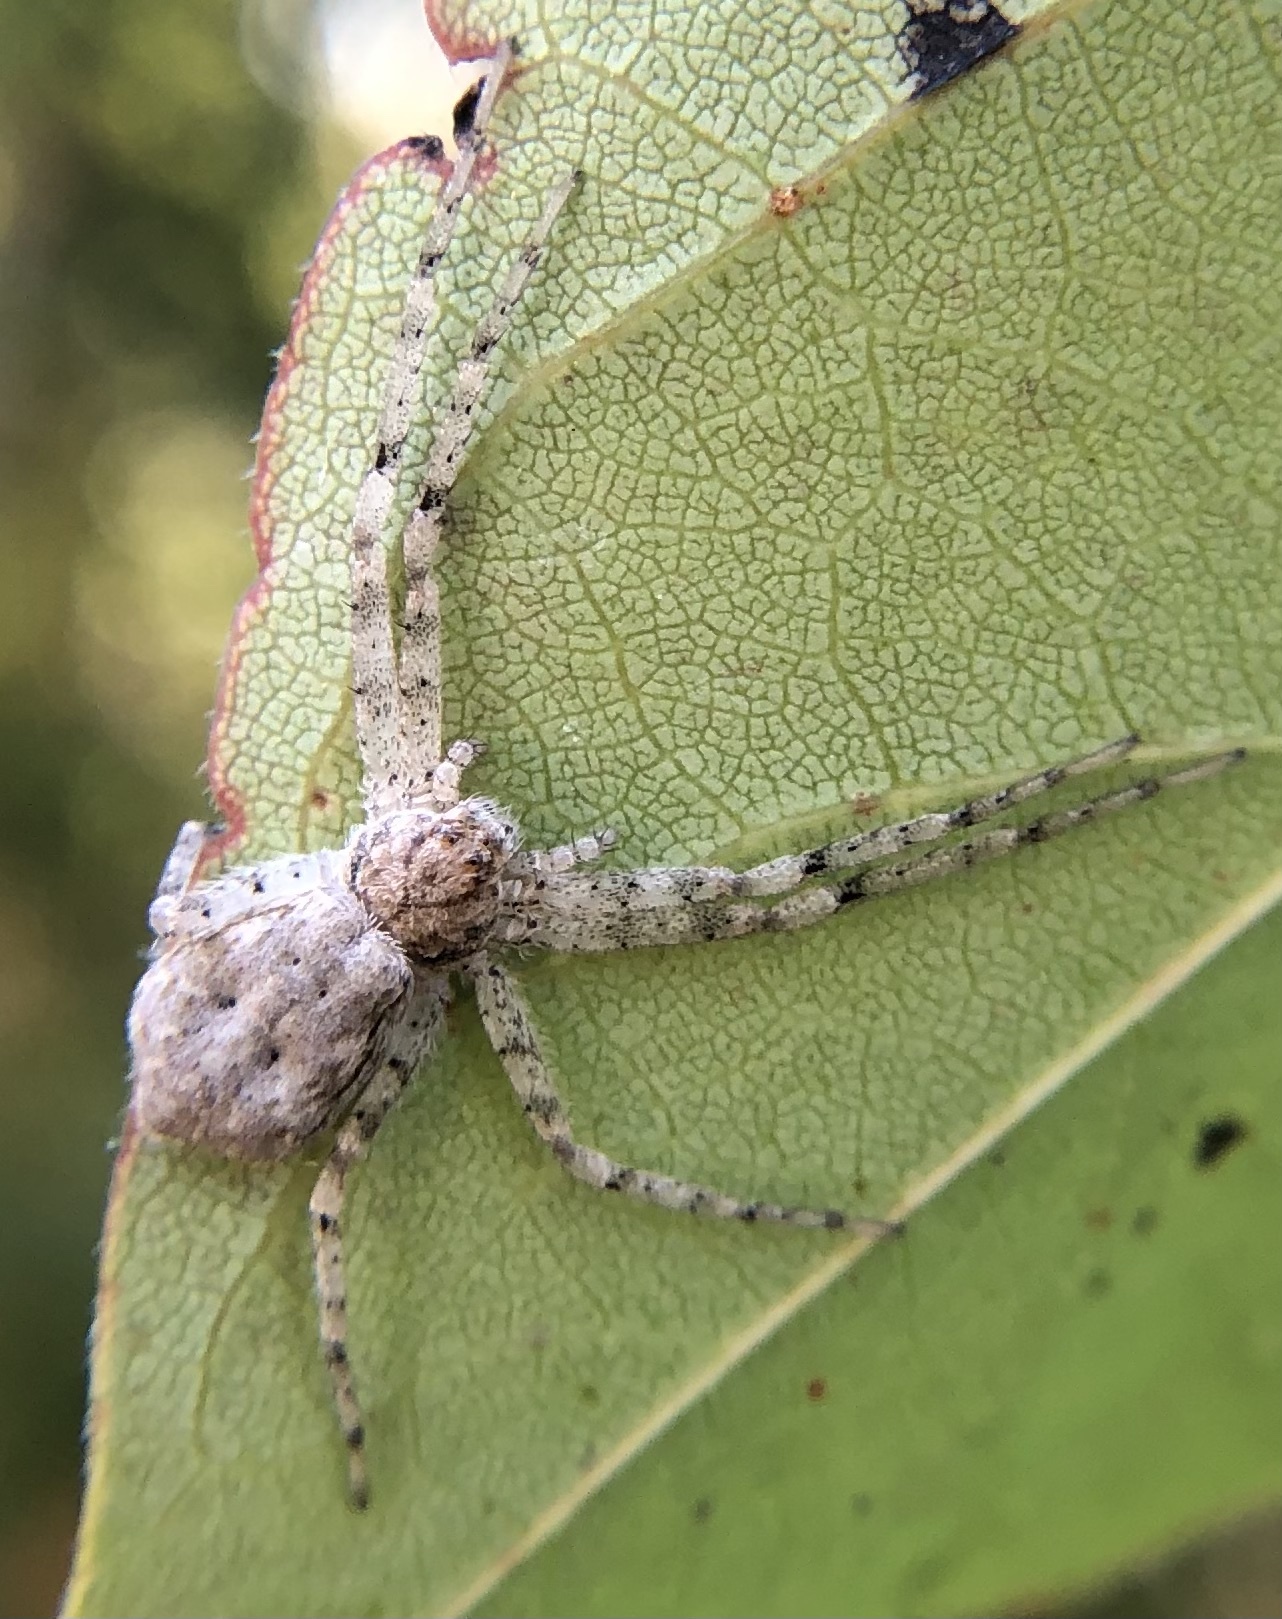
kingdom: Animalia
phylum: Arthropoda
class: Arachnida
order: Araneae
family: Philodromidae
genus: Philodromus
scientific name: Philodromus praelustris
